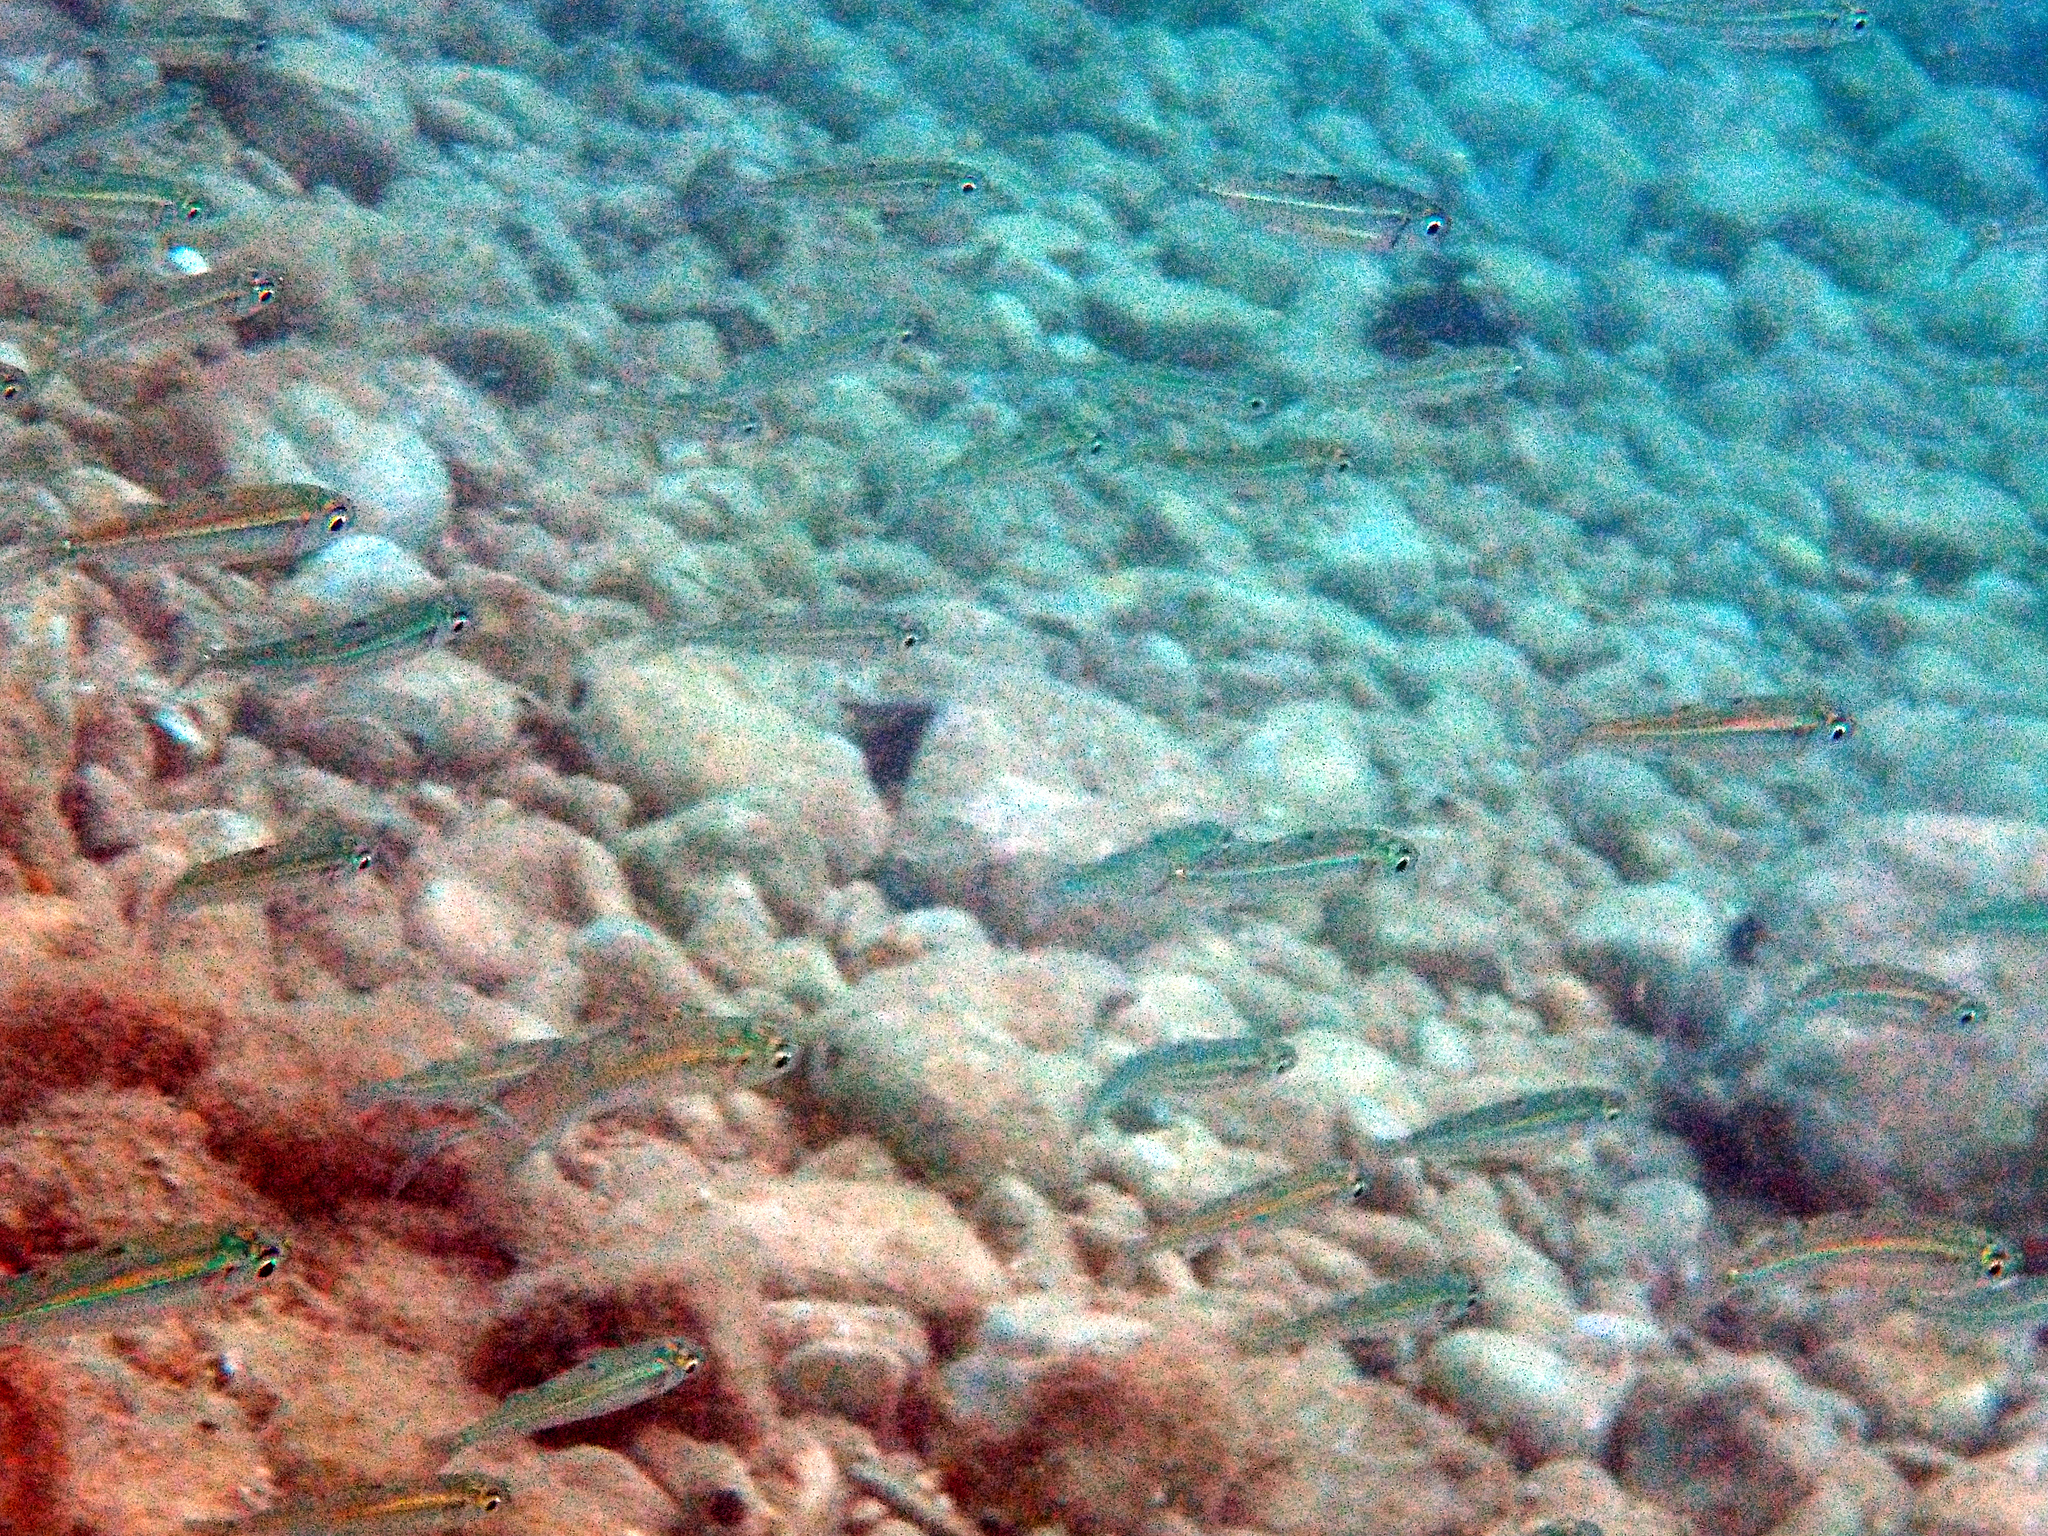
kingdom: Animalia
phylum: Chordata
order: Atheriniformes
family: Atherinidae
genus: Atherina
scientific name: Atherina
